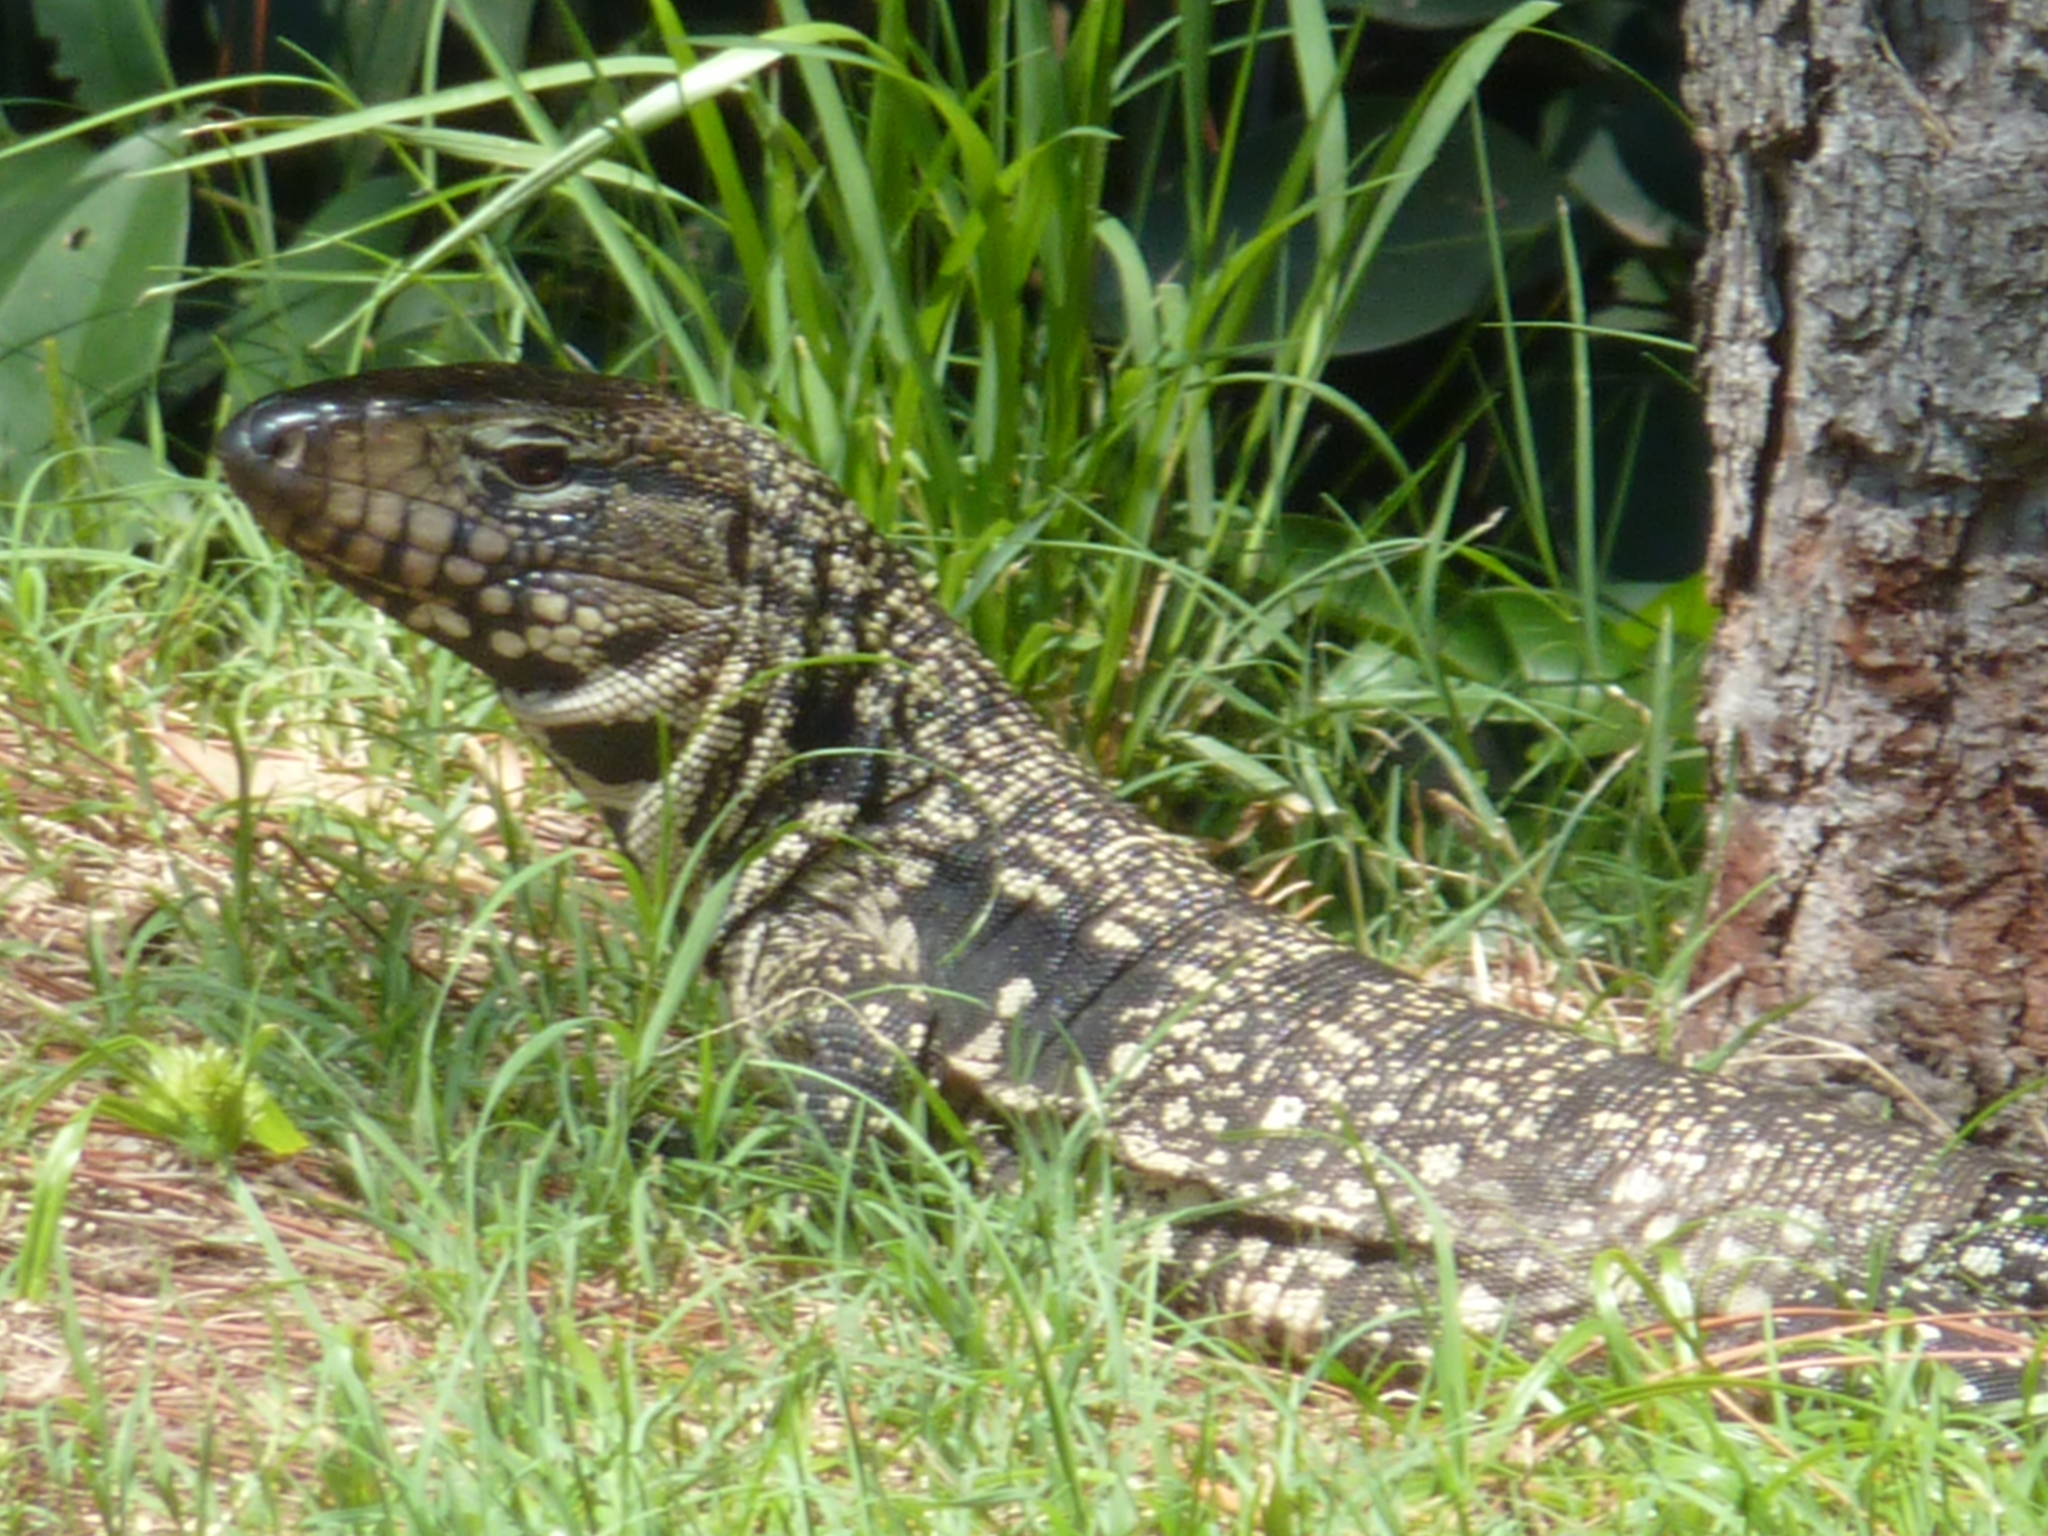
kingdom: Animalia
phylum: Chordata
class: Squamata
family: Teiidae
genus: Salvator
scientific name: Salvator merianae
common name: Argentine black and white tegu
